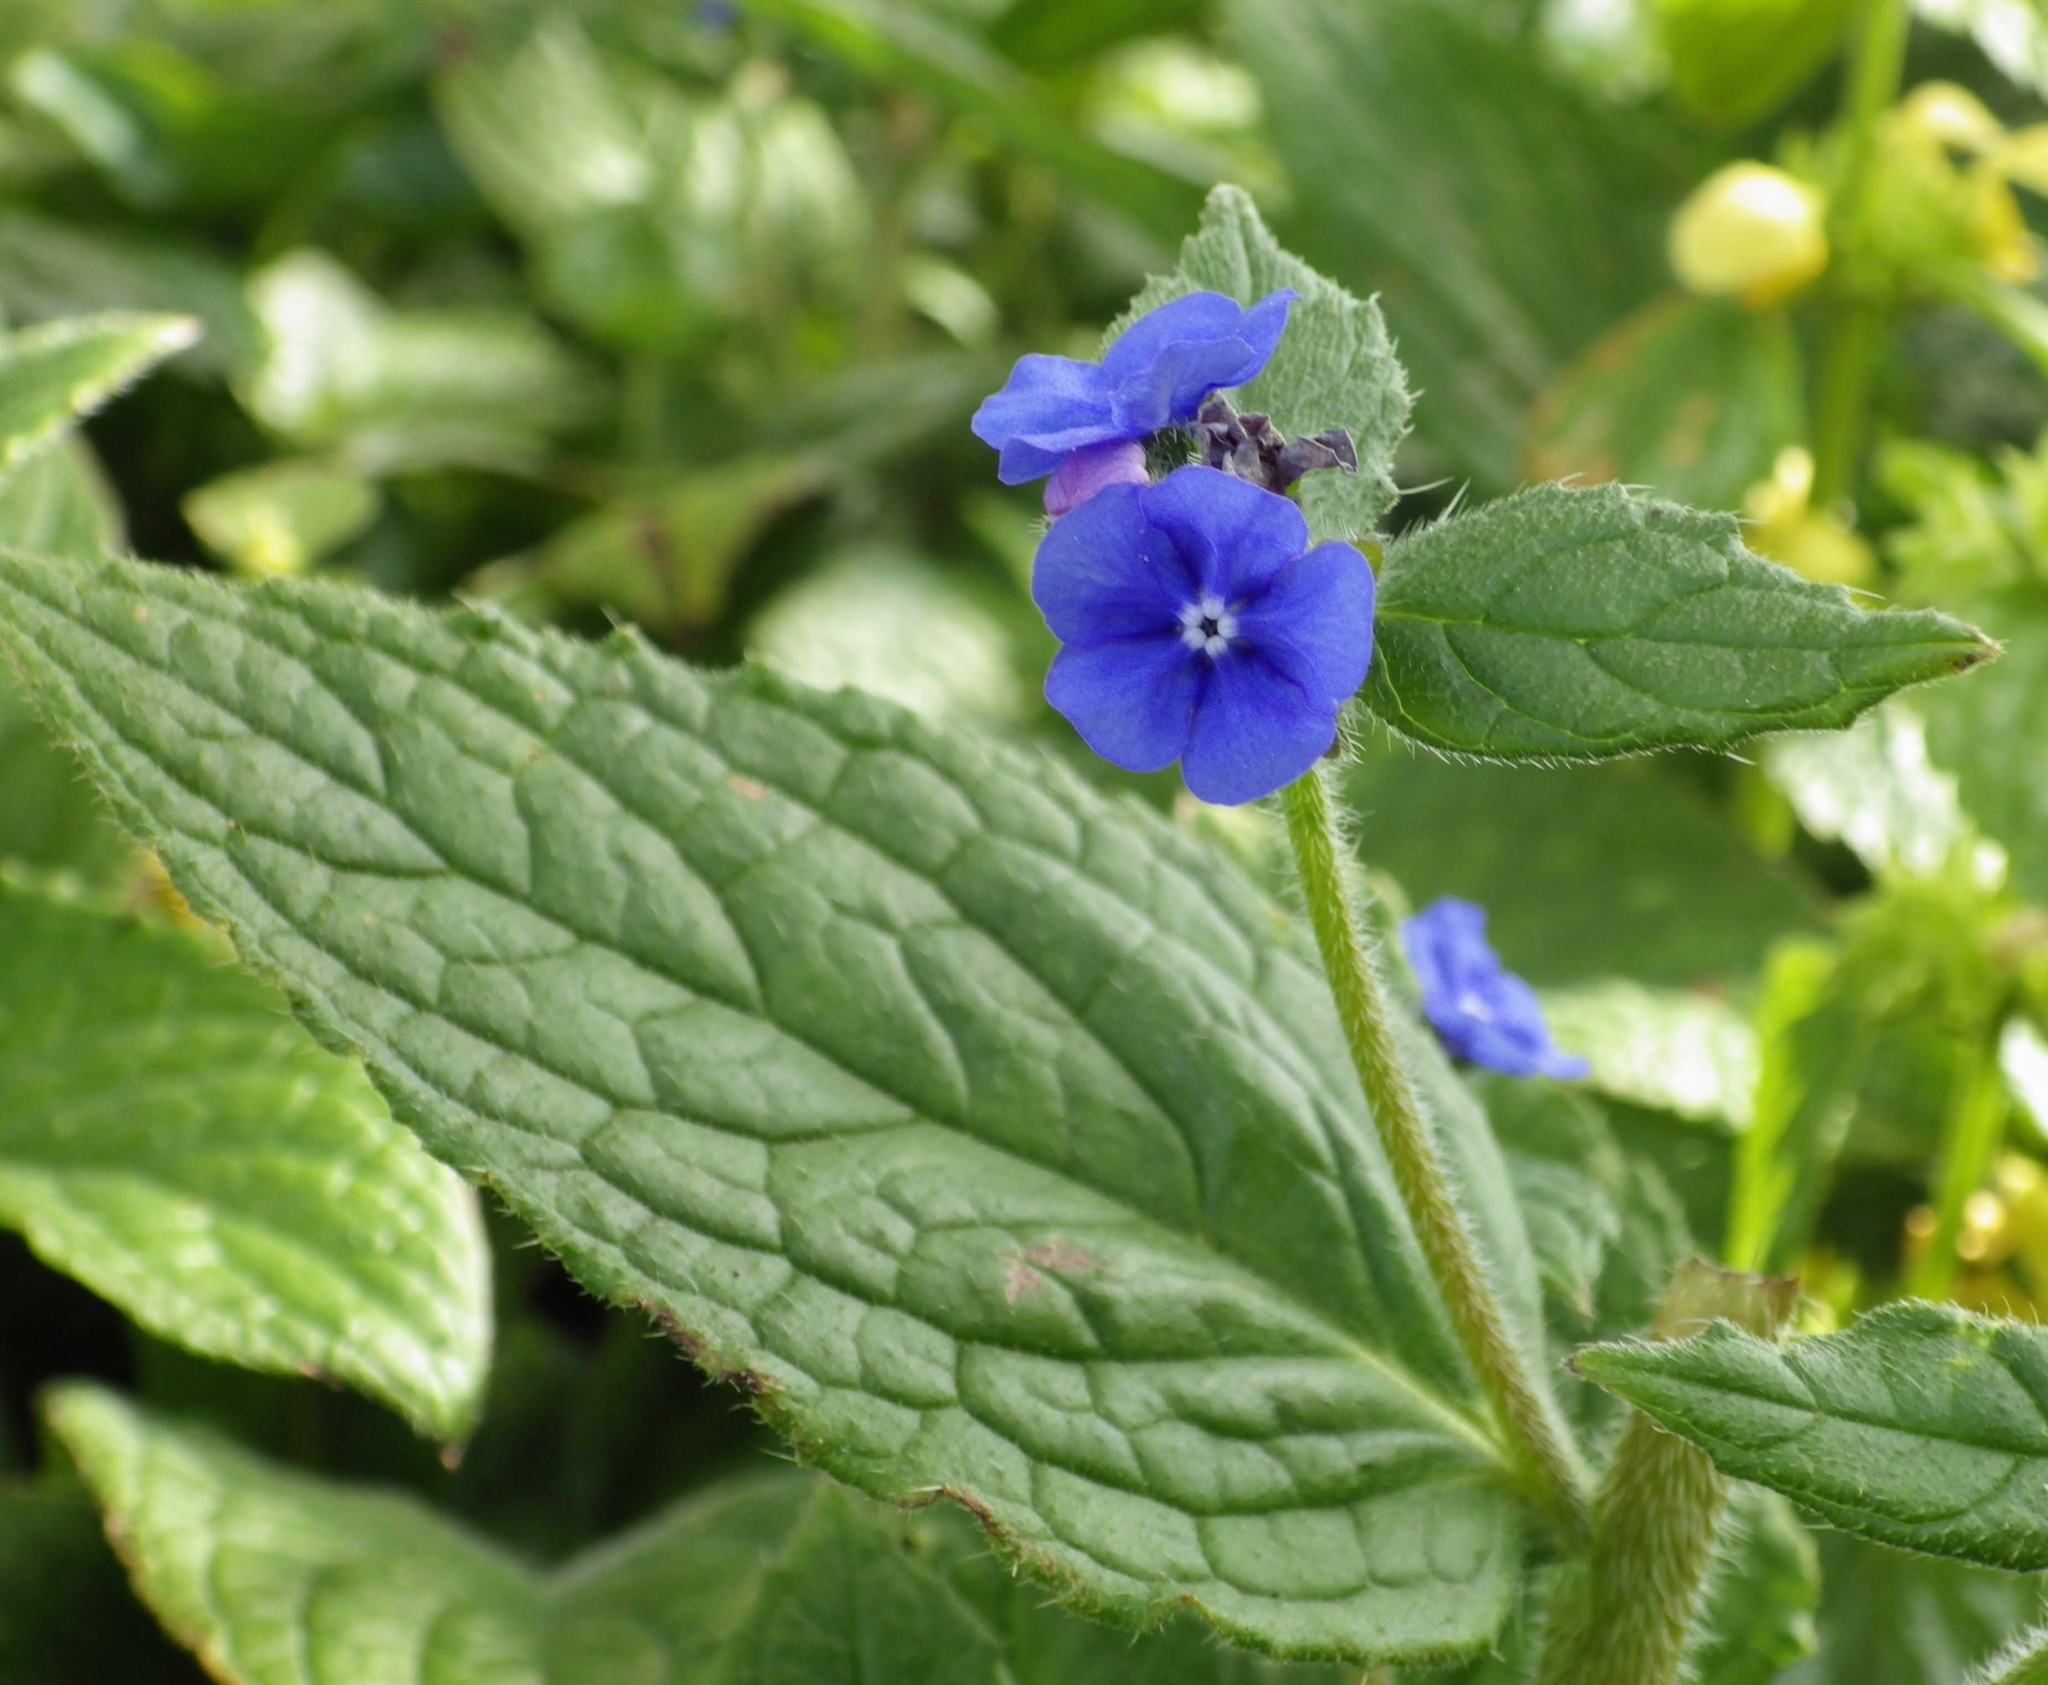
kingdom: Plantae
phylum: Tracheophyta
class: Magnoliopsida
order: Boraginales
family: Boraginaceae
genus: Pentaglottis
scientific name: Pentaglottis sempervirens
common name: Green alkanet
